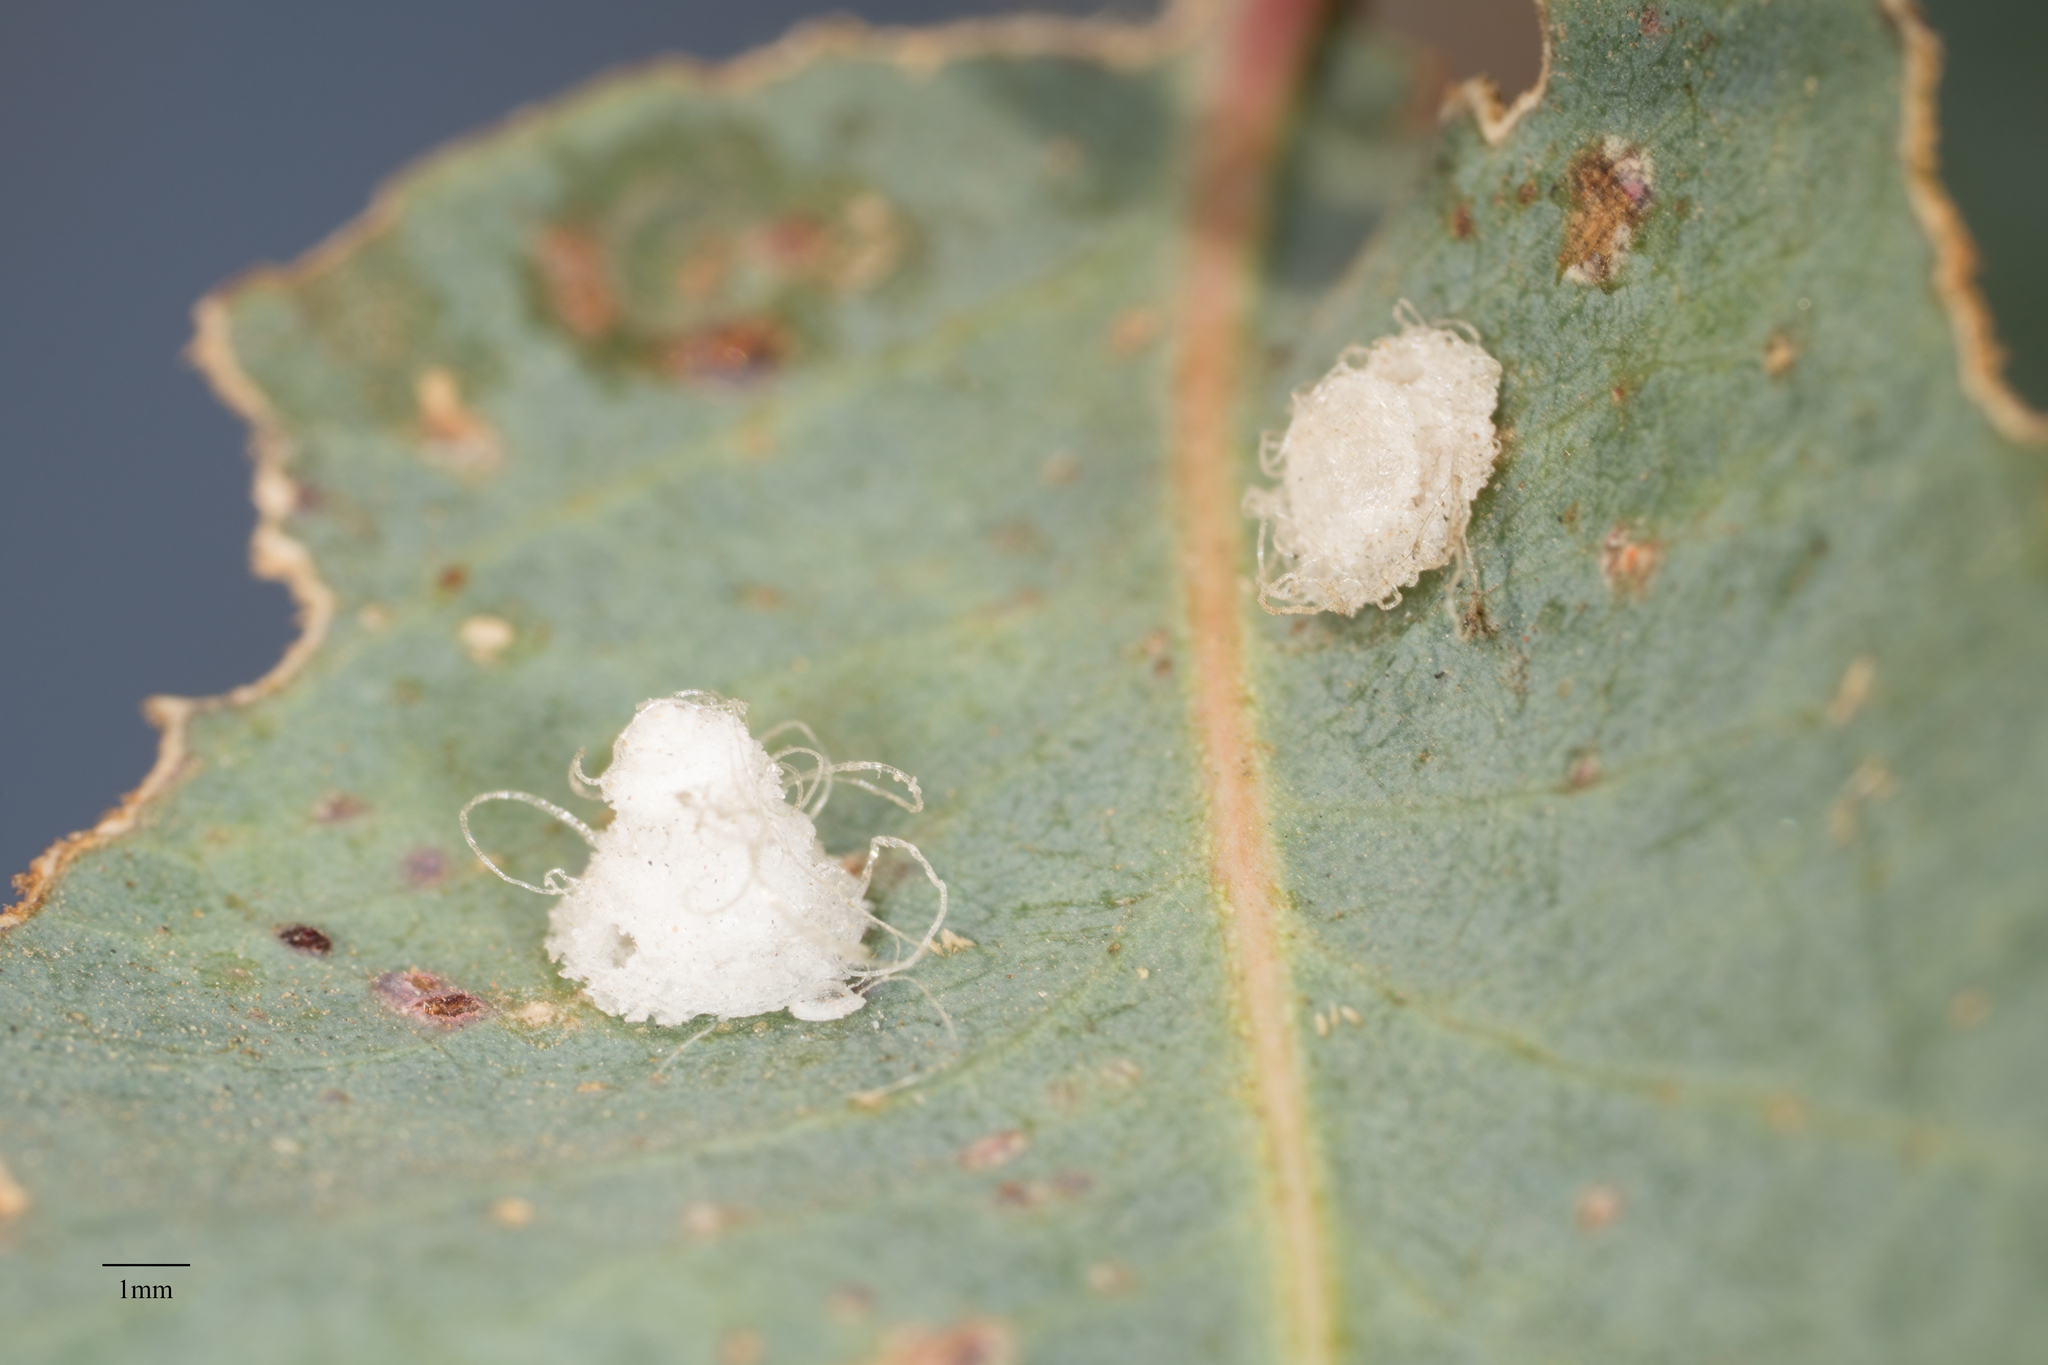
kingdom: Animalia
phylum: Arthropoda
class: Insecta
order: Hemiptera
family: Aphalaridae
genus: Glycaspis
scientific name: Glycaspis brimblecombei
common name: Red gum lerp psyllid
